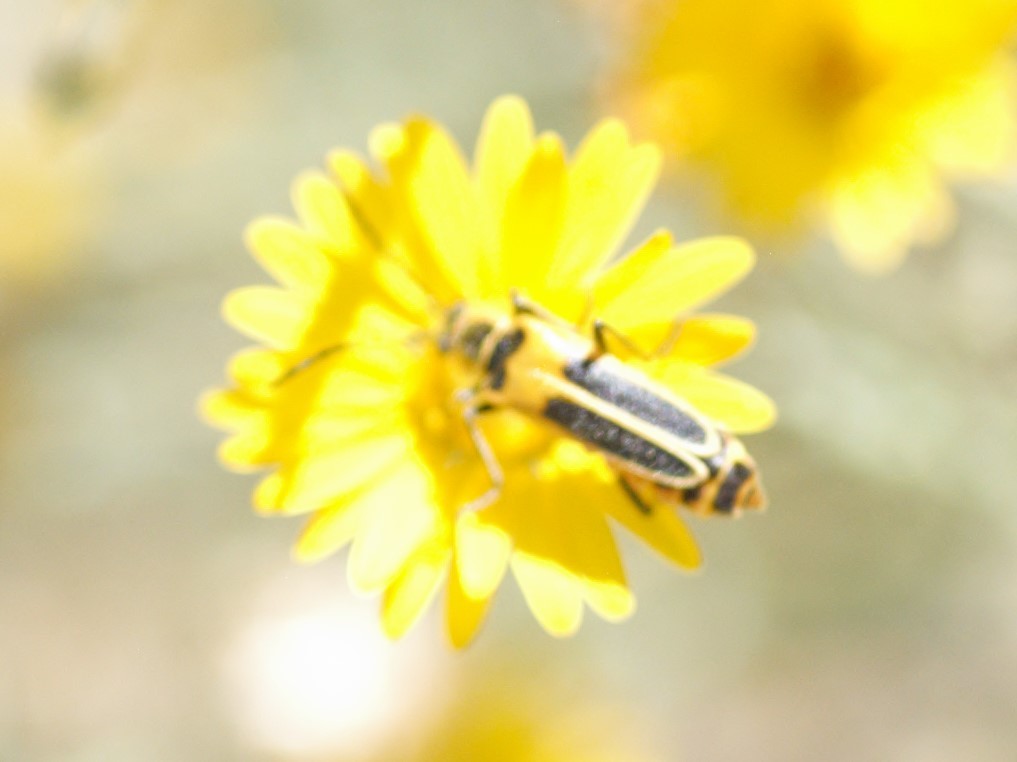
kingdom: Animalia
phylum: Arthropoda
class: Insecta
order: Coleoptera
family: Cantharidae
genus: Chauliognathus
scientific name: Chauliognathus lewisi
